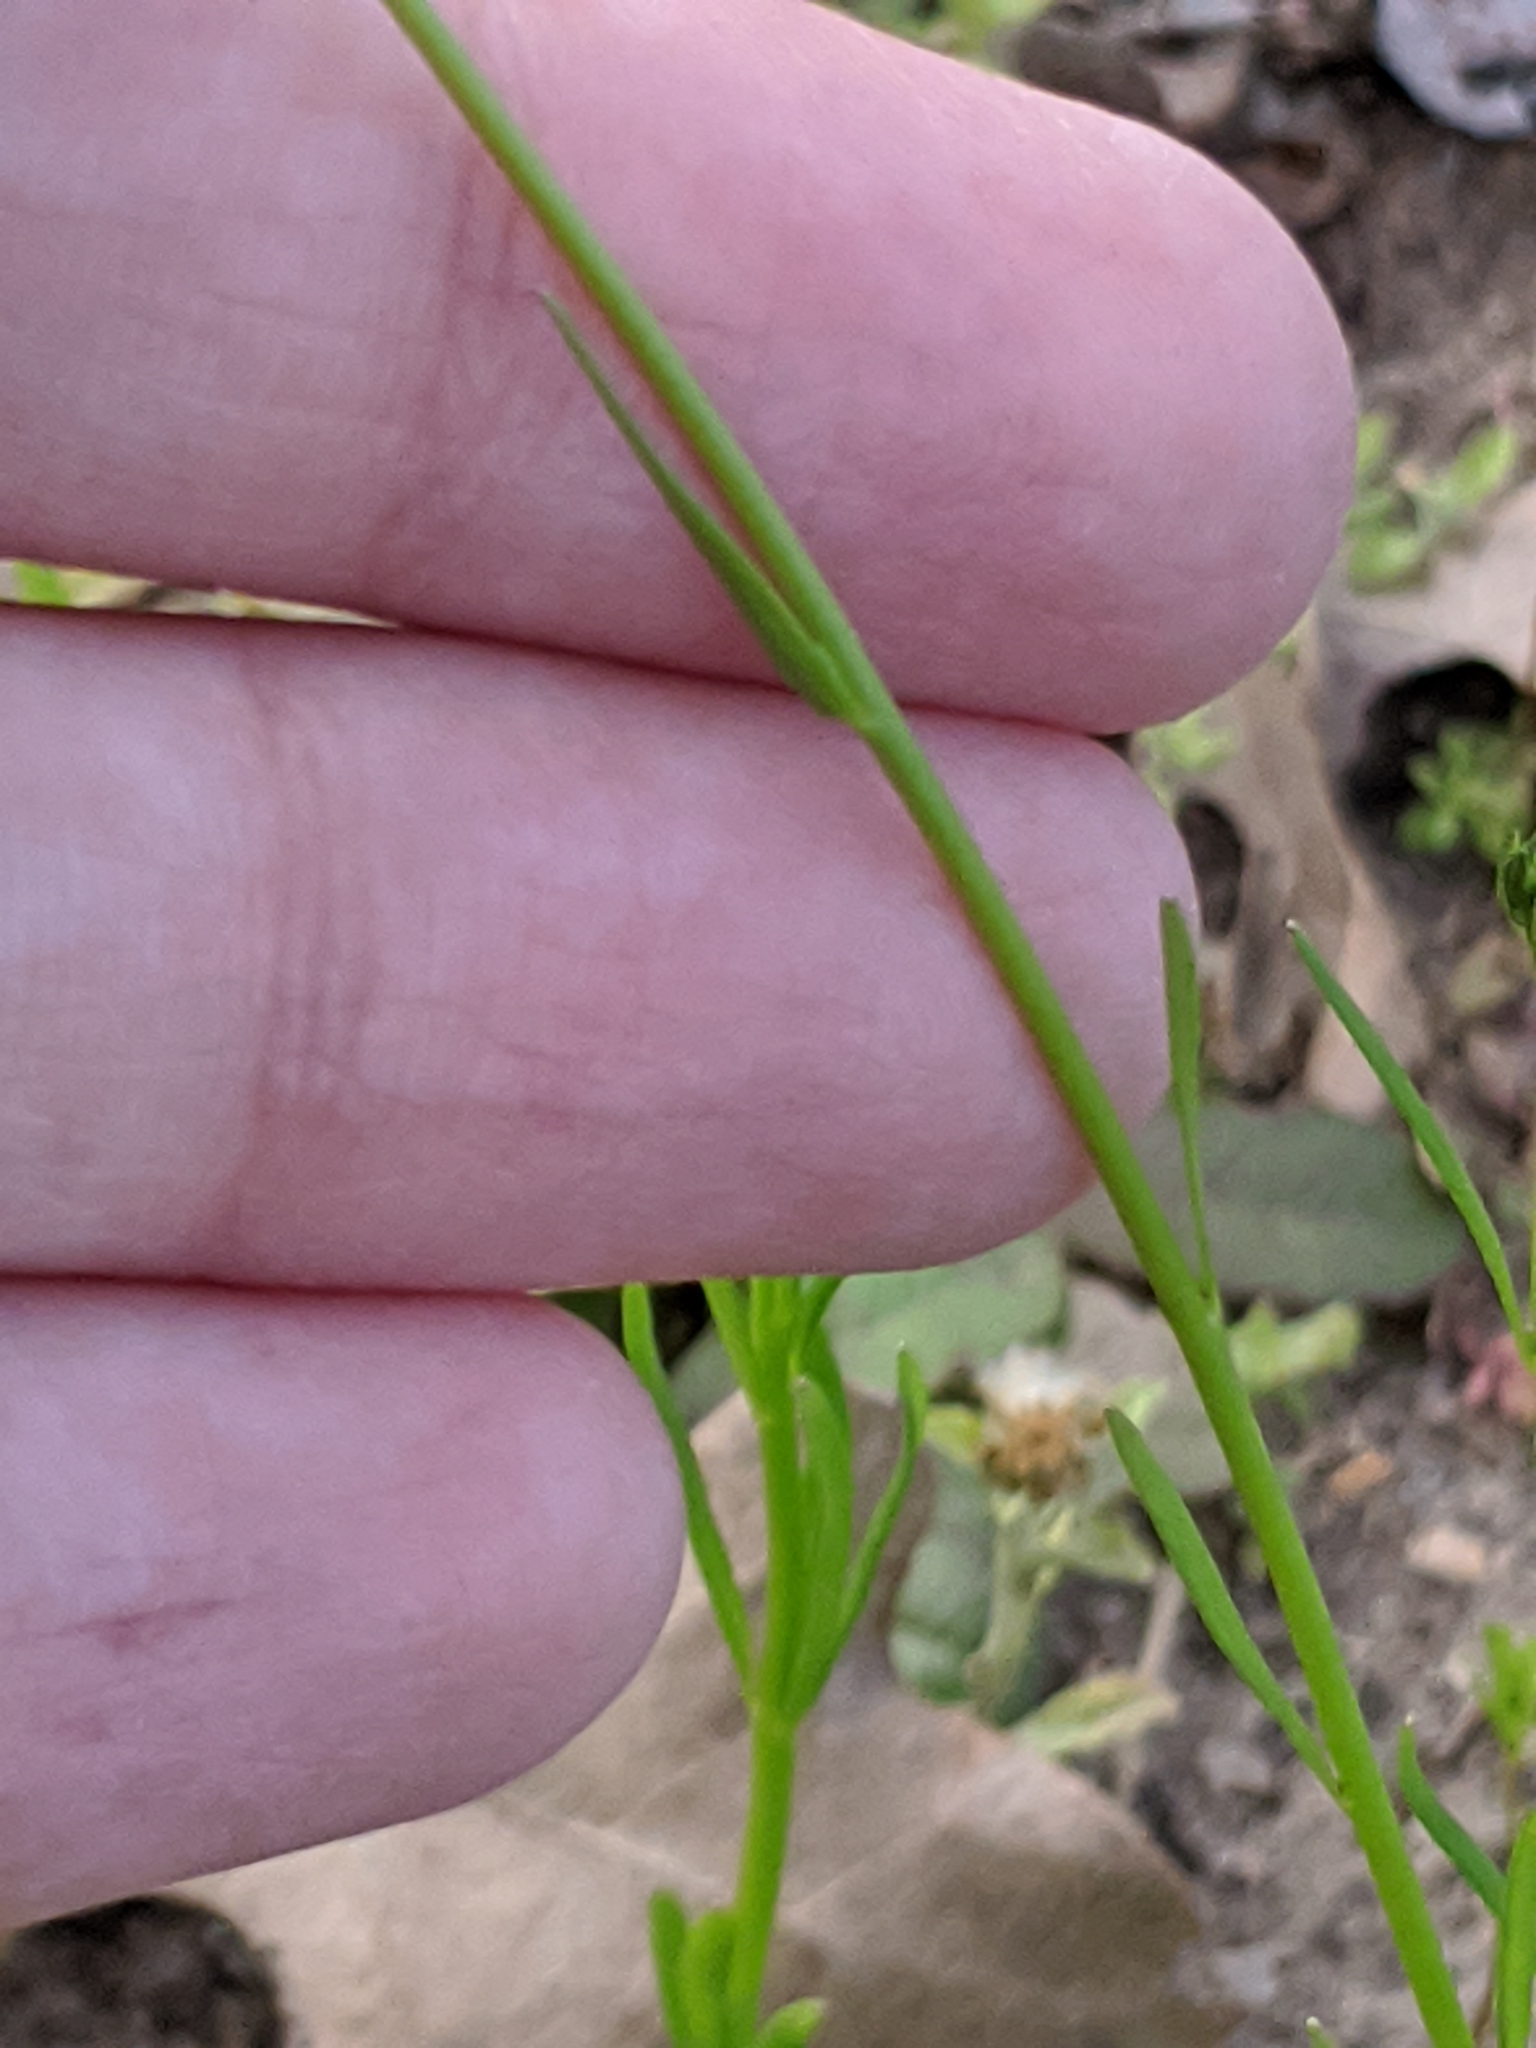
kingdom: Plantae
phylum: Tracheophyta
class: Magnoliopsida
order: Lamiales
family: Plantaginaceae
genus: Nuttallanthus
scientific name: Nuttallanthus texanus
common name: Texas toadflax
